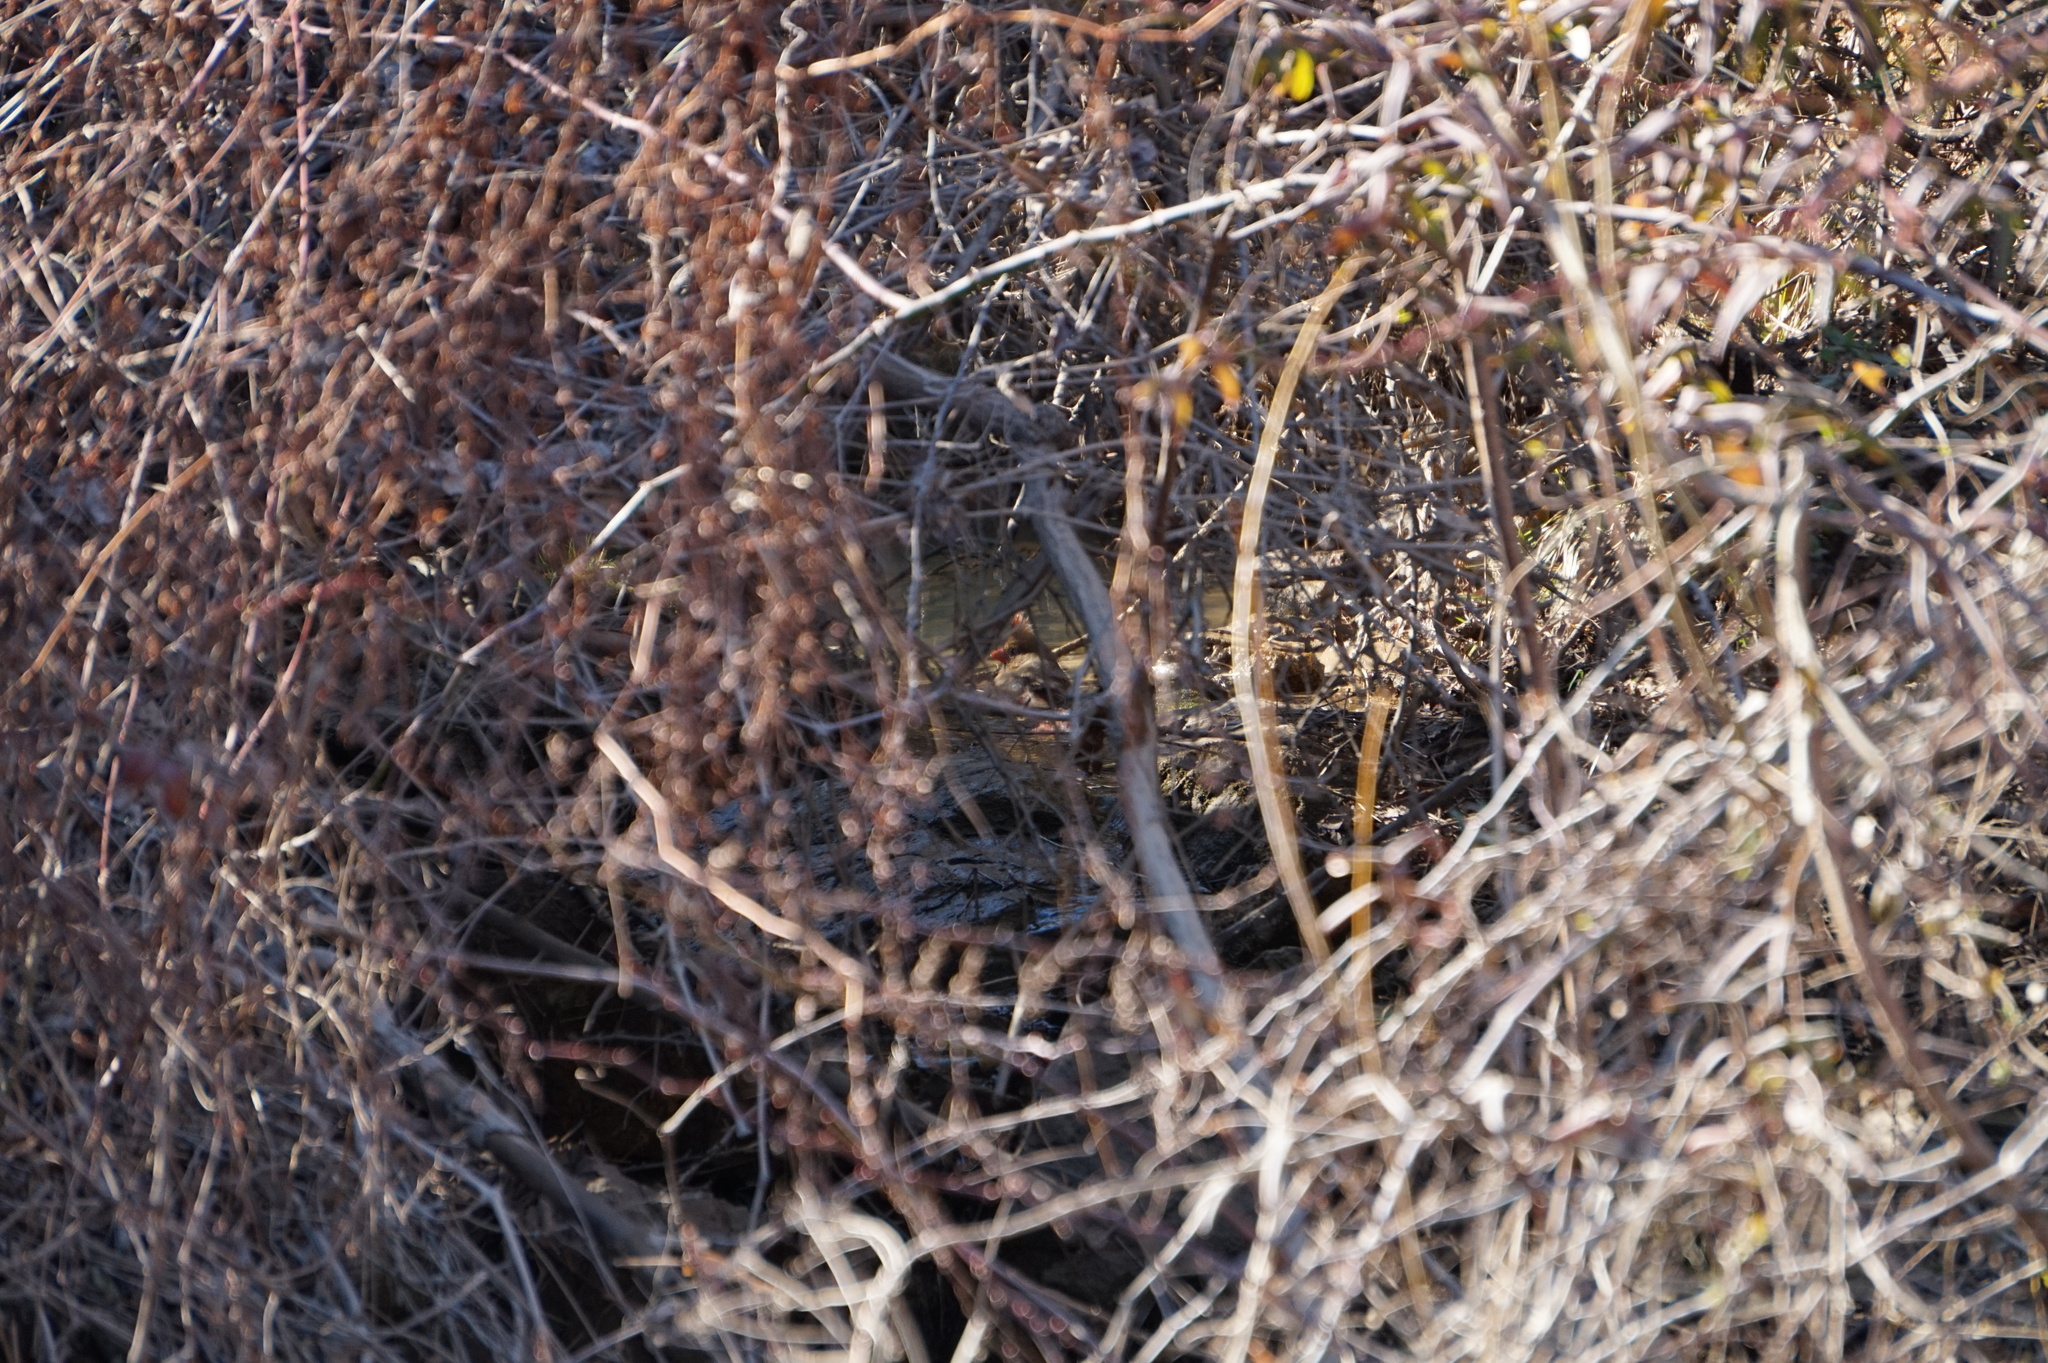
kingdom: Animalia
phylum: Chordata
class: Aves
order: Passeriformes
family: Cardinalidae
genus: Cardinalis
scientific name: Cardinalis cardinalis
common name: Northern cardinal
